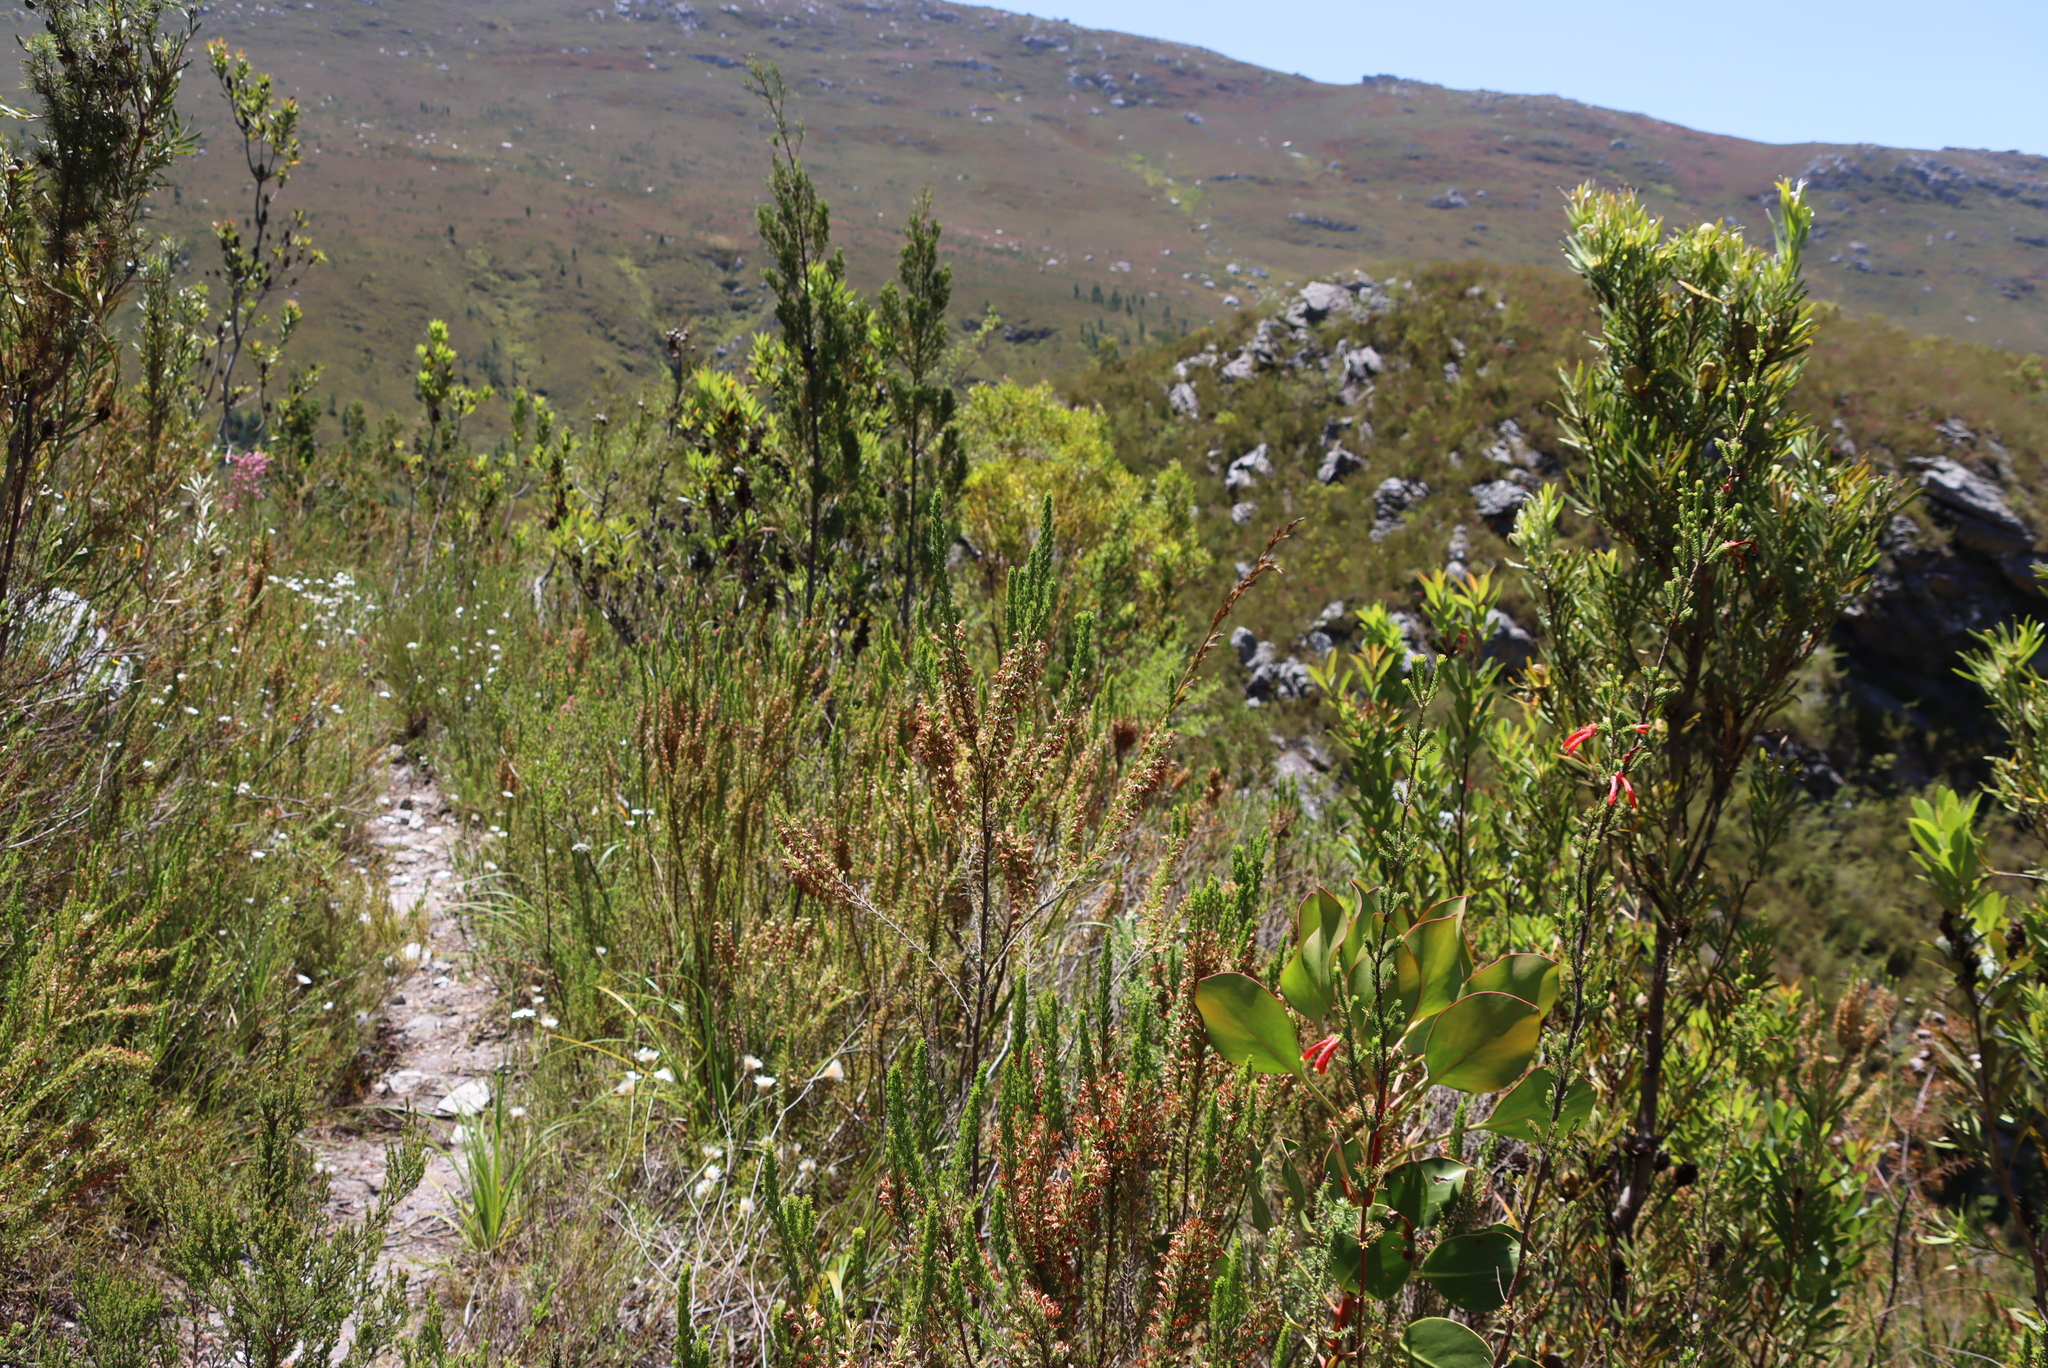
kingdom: Plantae
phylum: Tracheophyta
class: Magnoliopsida
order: Ericales
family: Ericaceae
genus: Erica
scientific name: Erica penicilliformis
